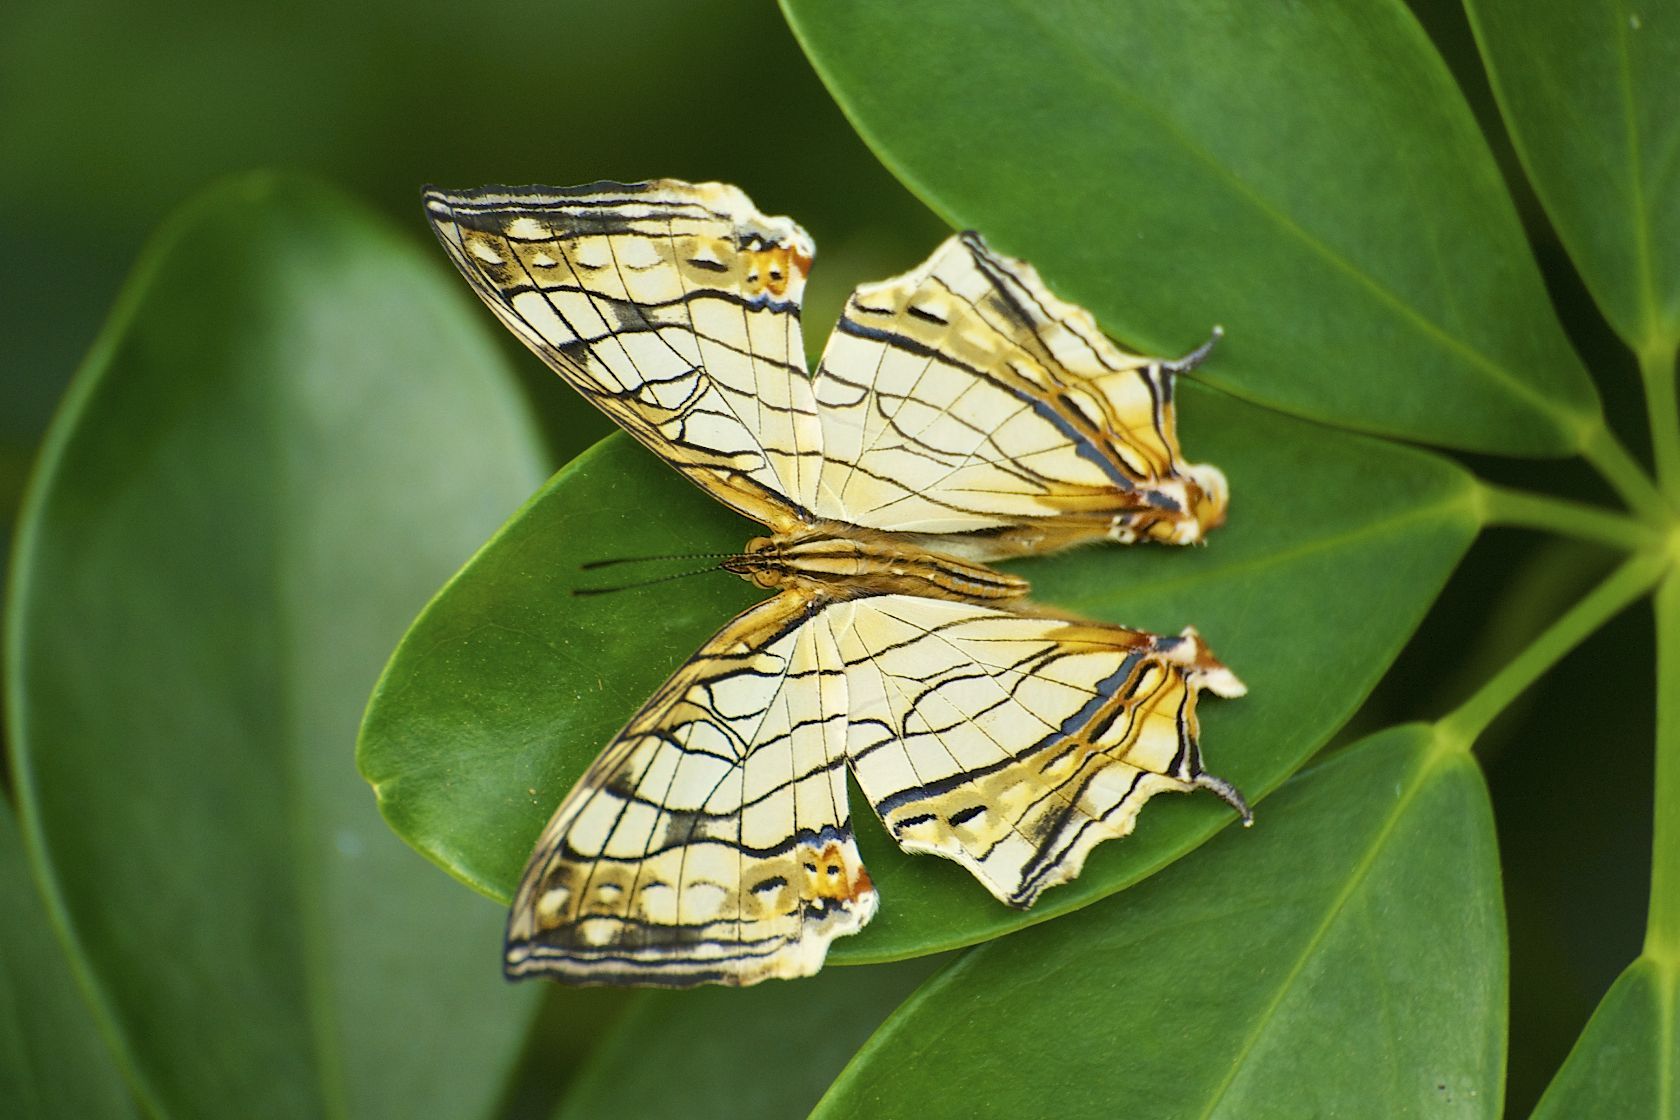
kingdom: Animalia
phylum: Arthropoda
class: Insecta
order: Lepidoptera
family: Nymphalidae
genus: Cyrestis
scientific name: Cyrestis thyodamas
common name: Common mapwing
